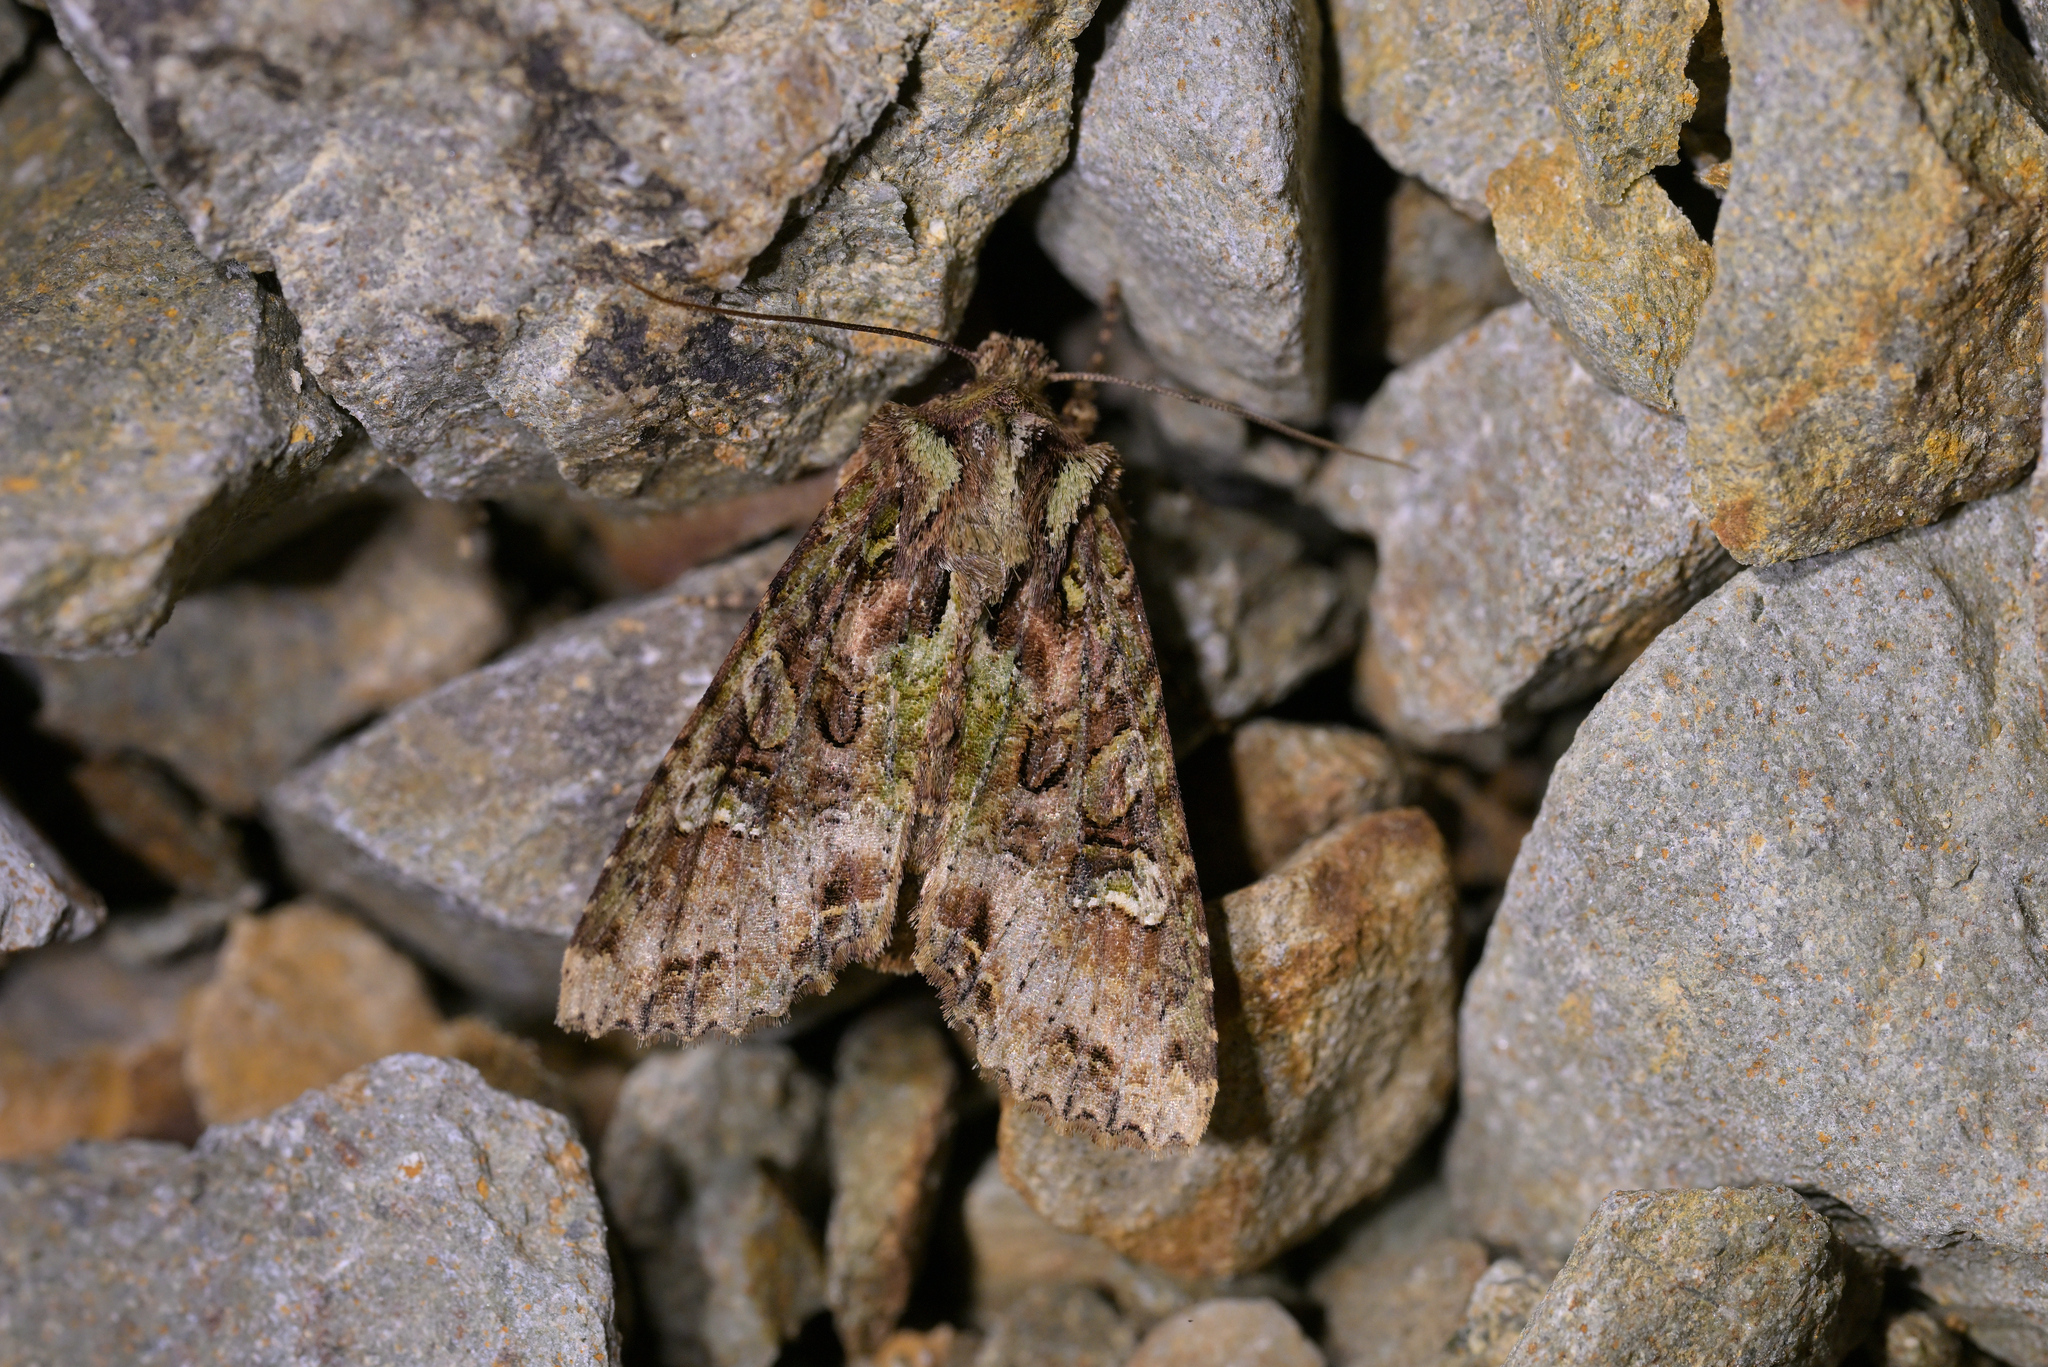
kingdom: Animalia
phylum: Arthropoda
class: Insecta
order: Lepidoptera
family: Noctuidae
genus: Meterana
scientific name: Meterana
